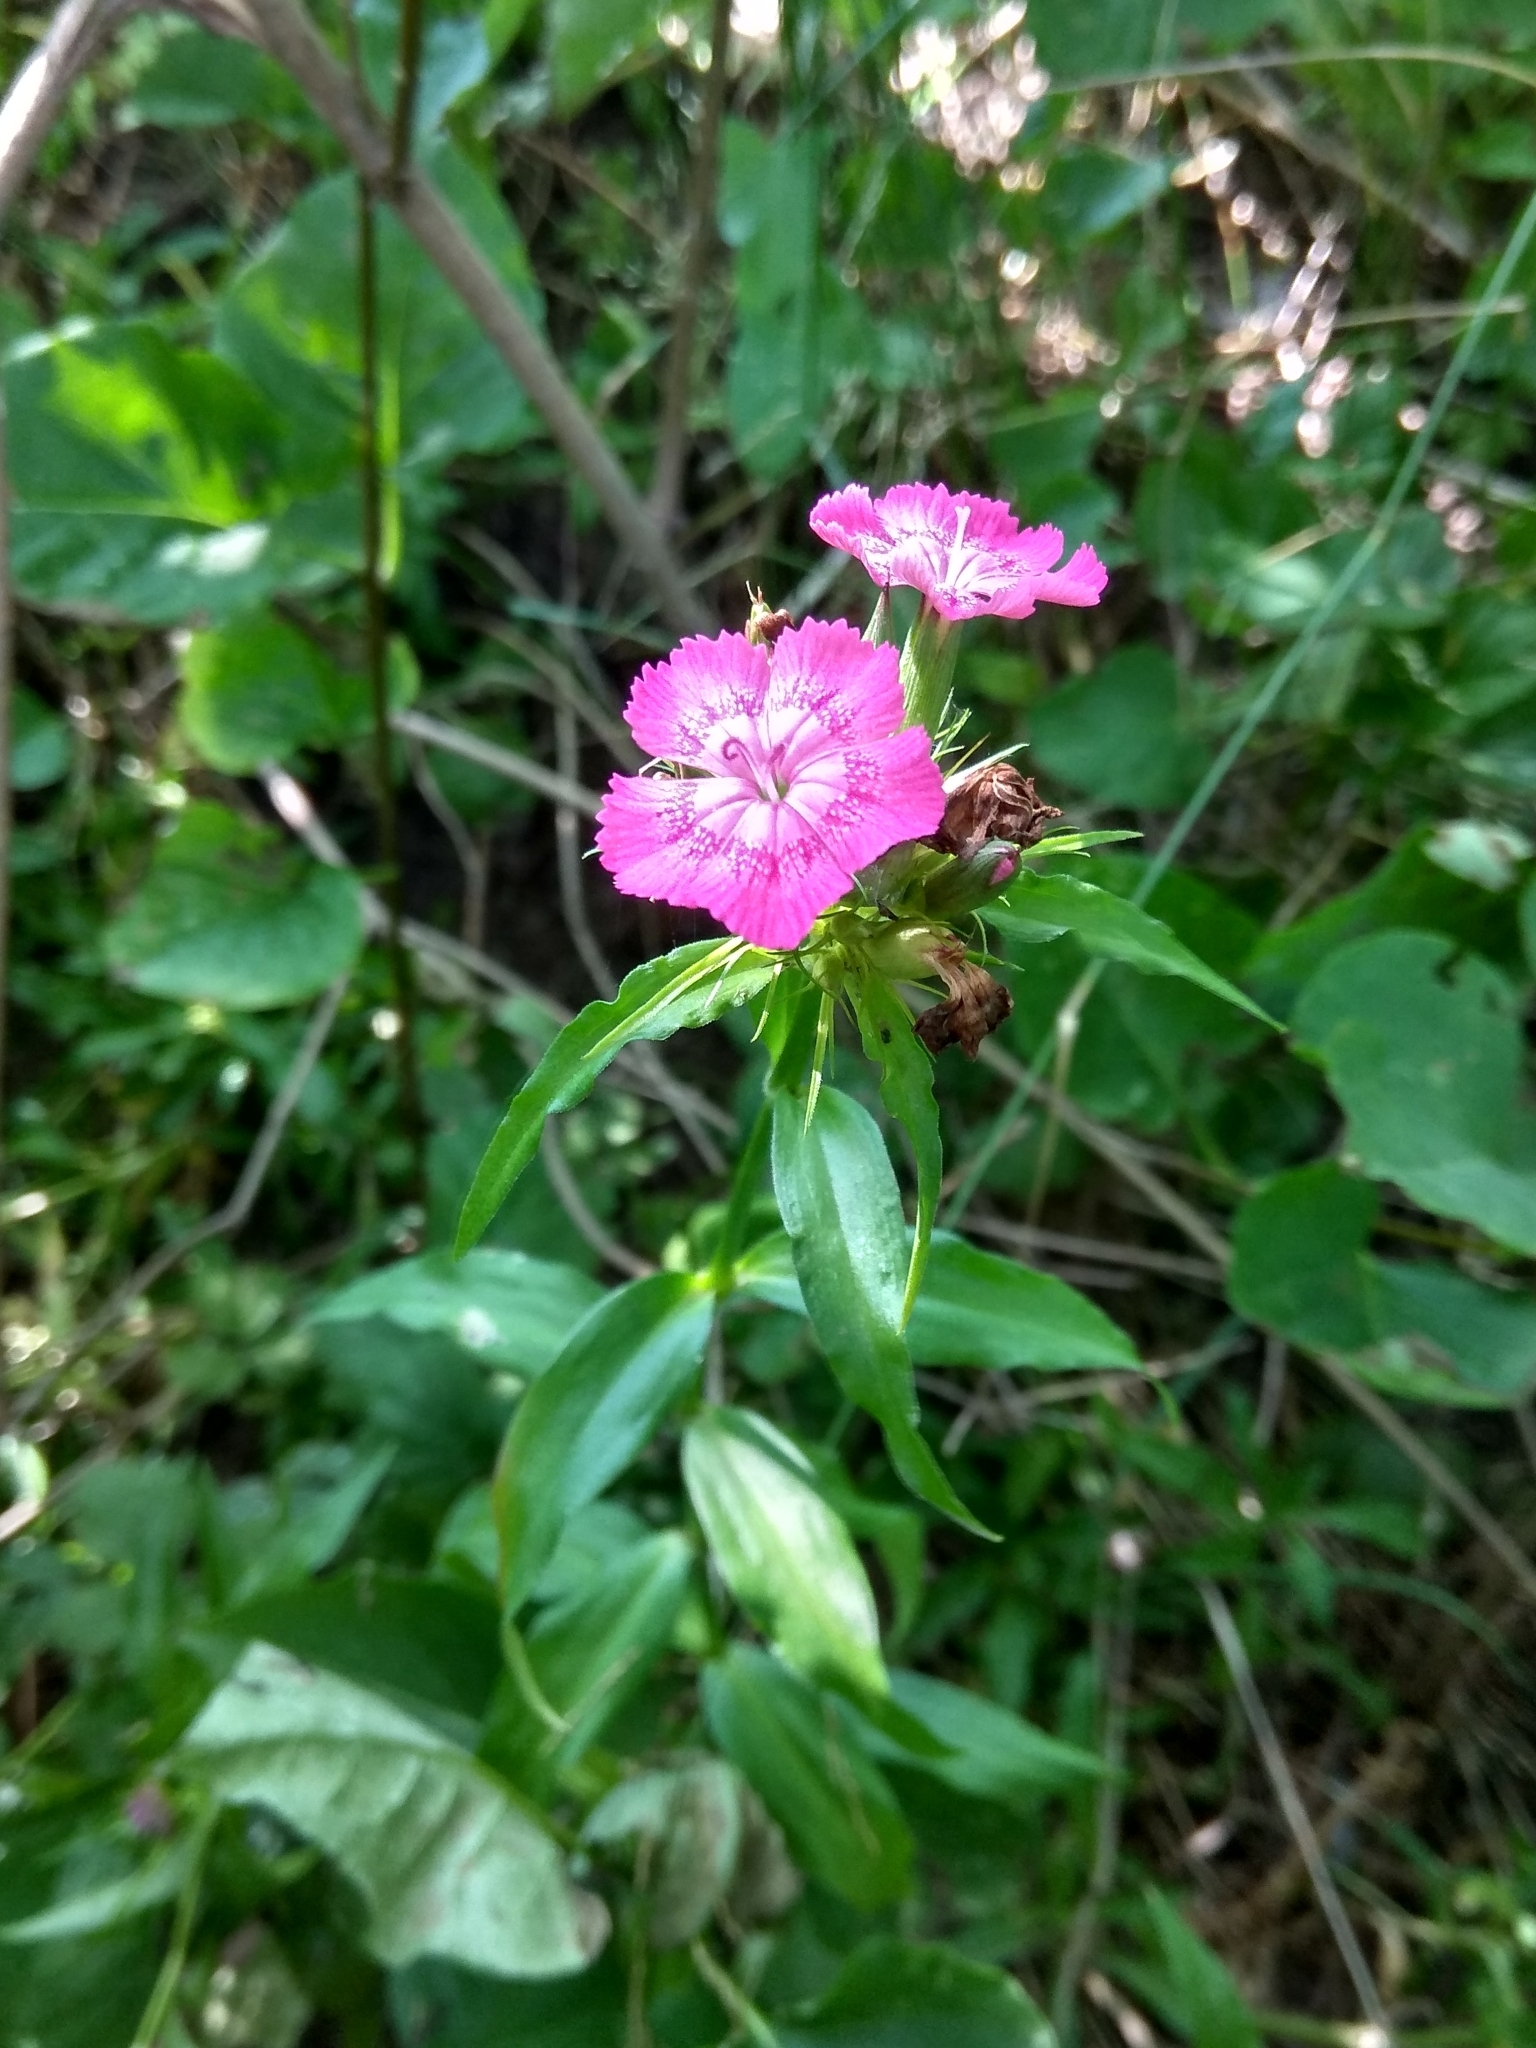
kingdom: Plantae
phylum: Tracheophyta
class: Magnoliopsida
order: Caryophyllales
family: Caryophyllaceae
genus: Dianthus
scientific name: Dianthus barbatus
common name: Sweet-william
